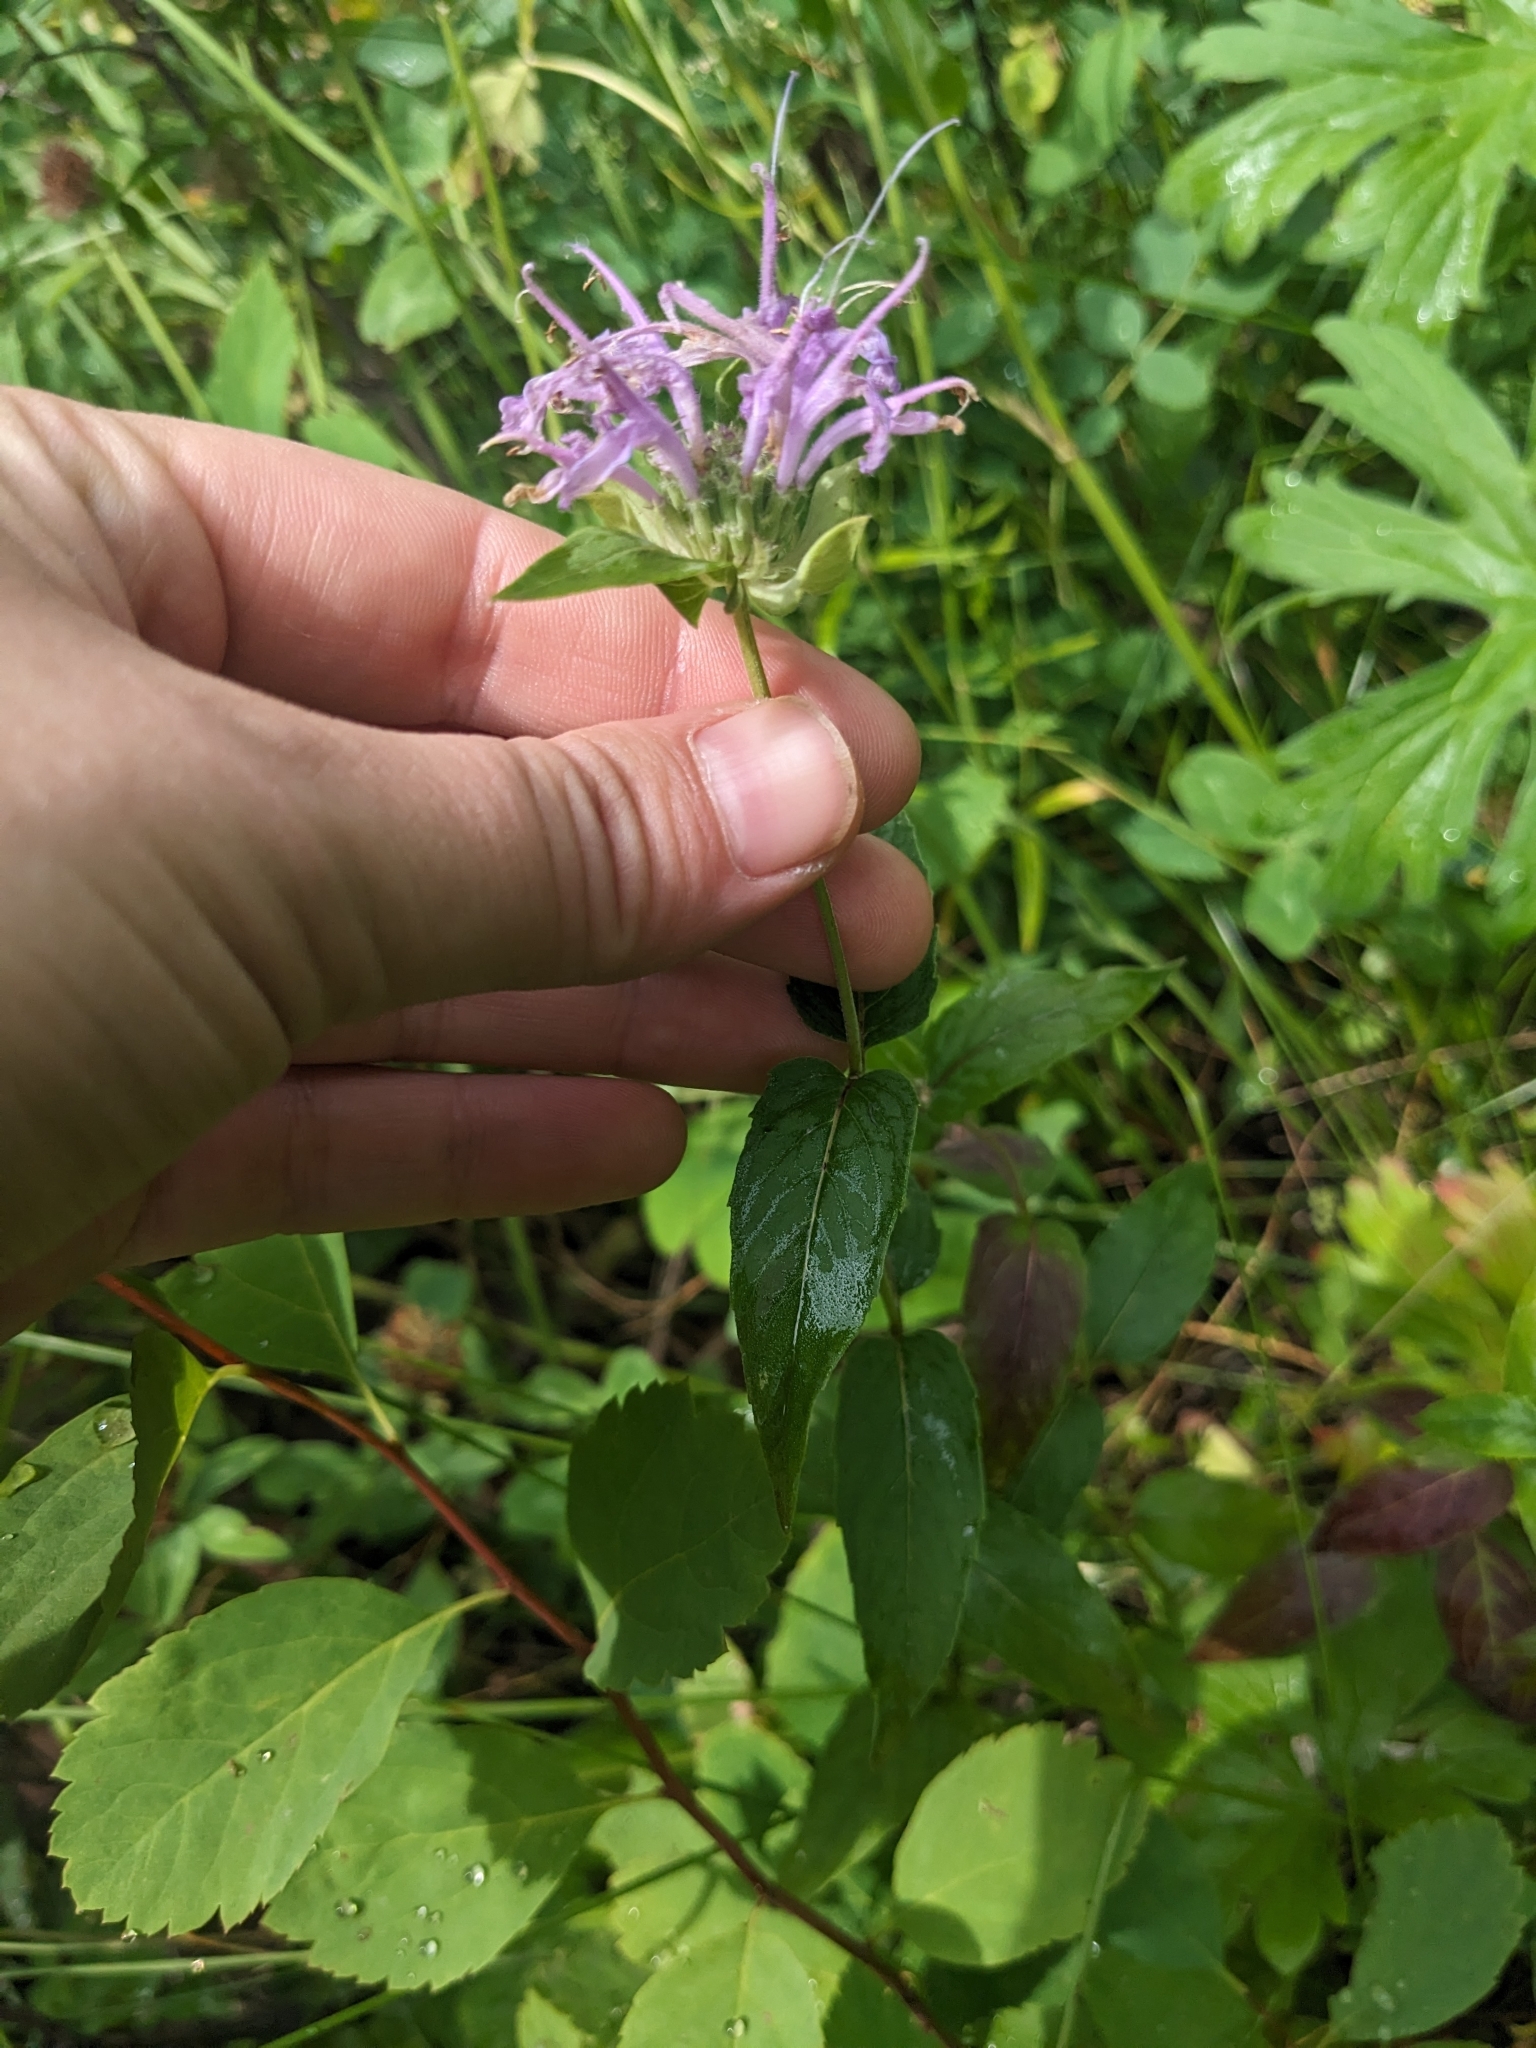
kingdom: Plantae
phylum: Tracheophyta
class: Magnoliopsida
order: Lamiales
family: Lamiaceae
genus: Monarda
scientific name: Monarda fistulosa
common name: Purple beebalm
